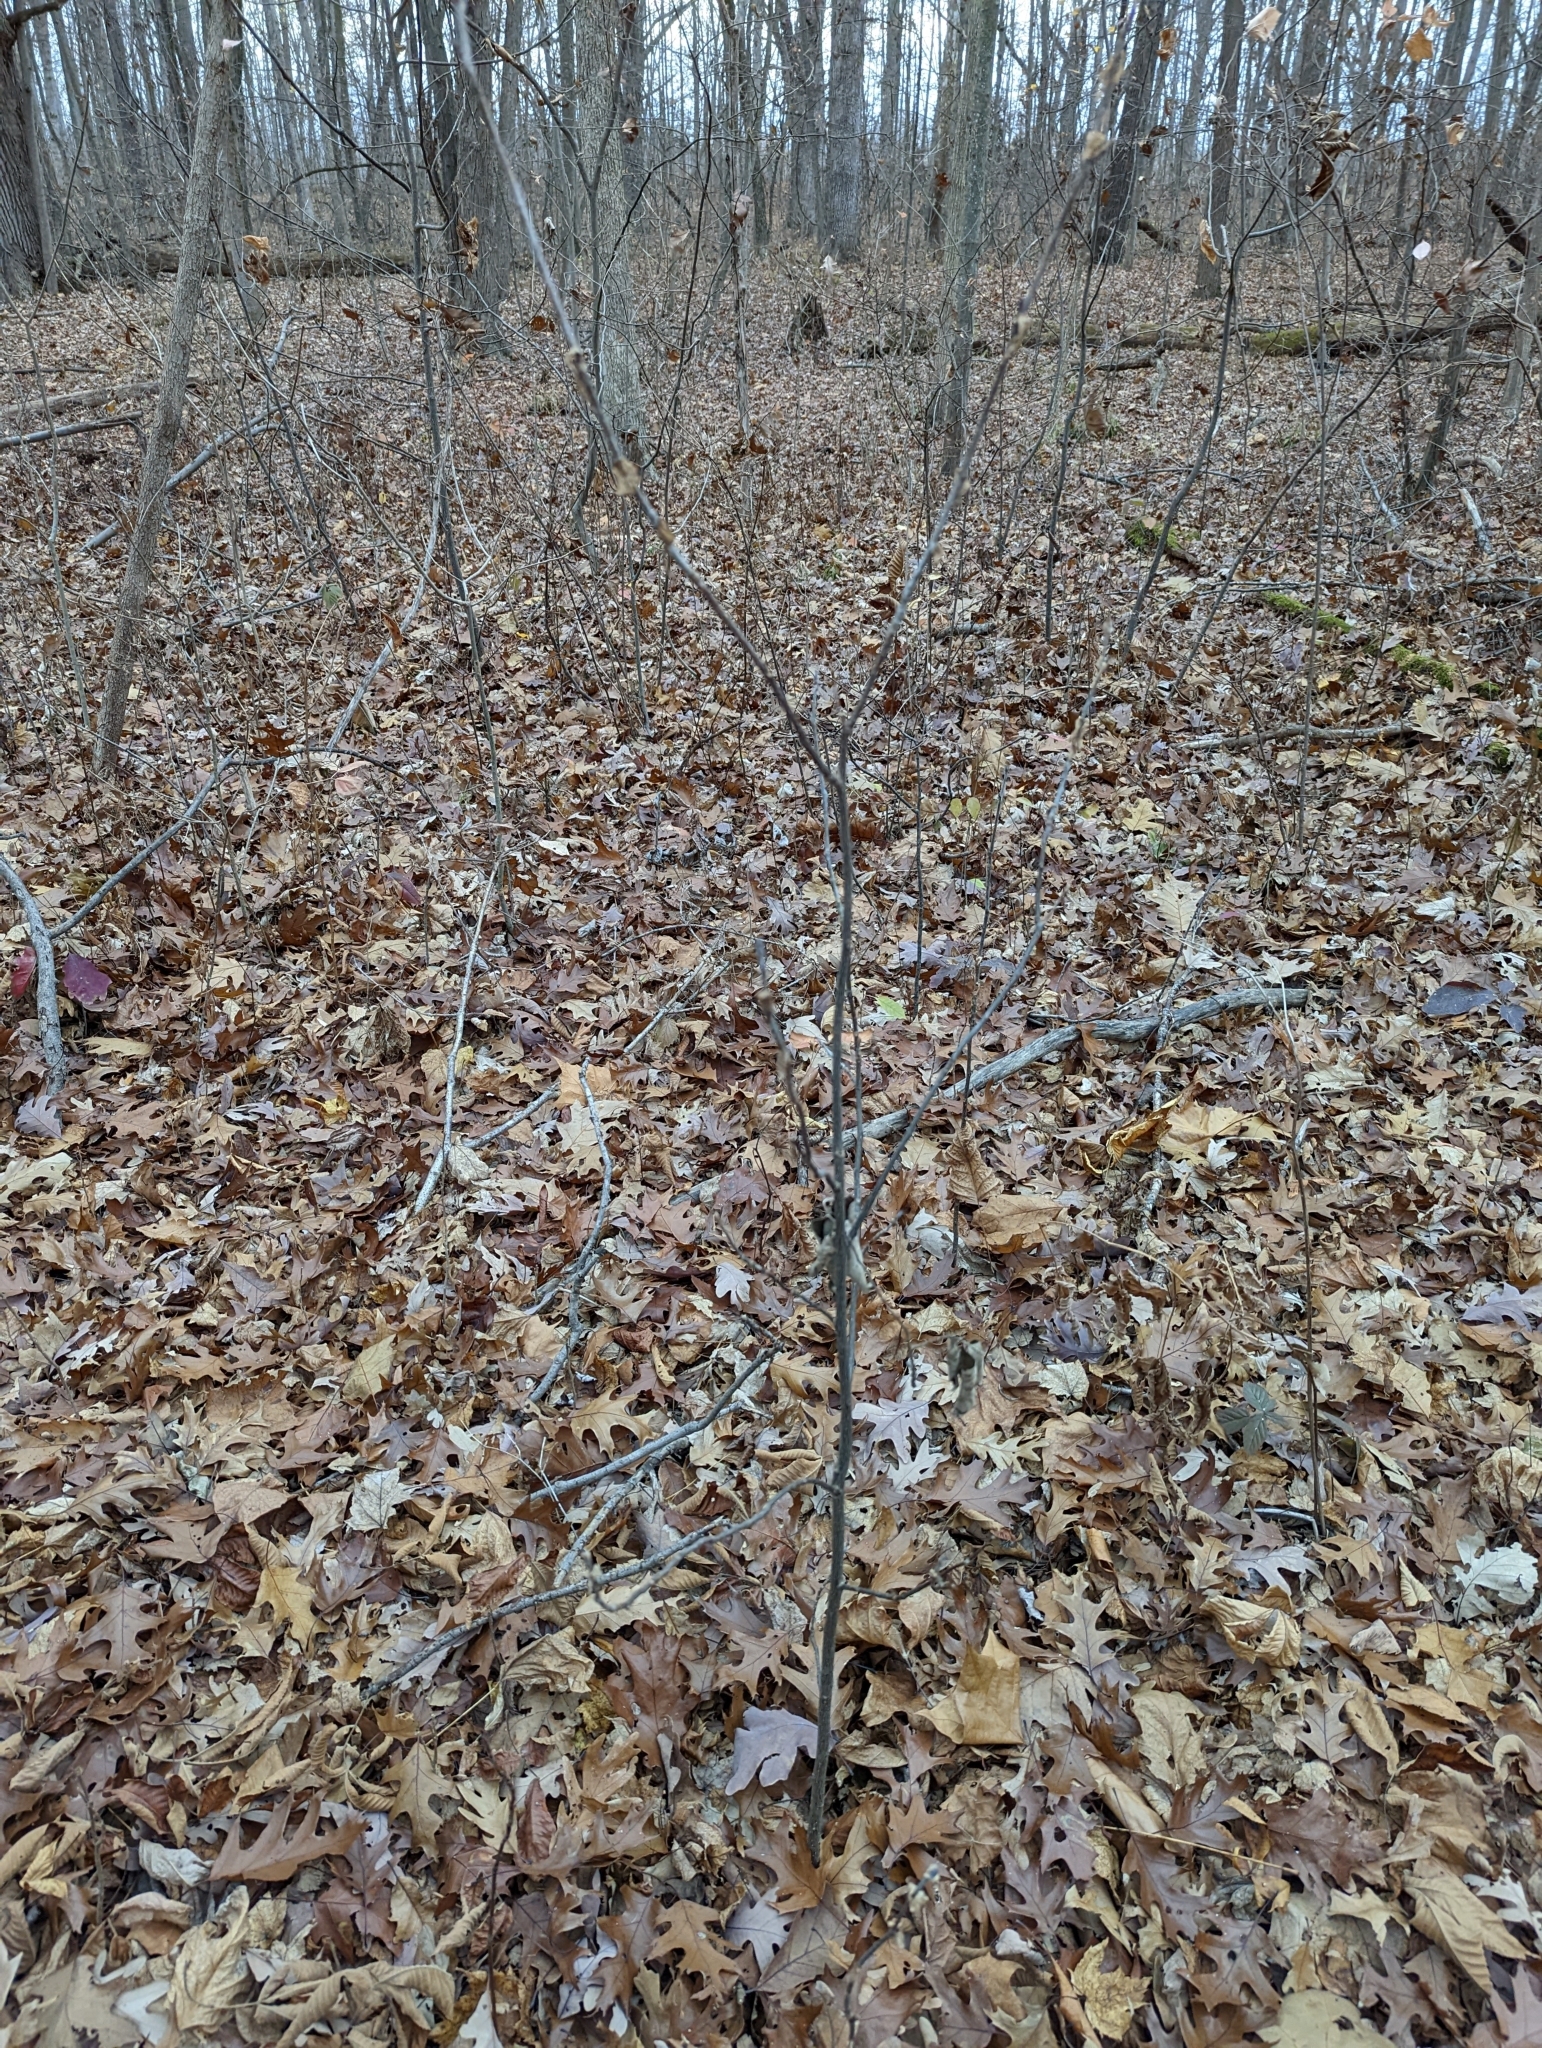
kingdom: Plantae
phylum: Tracheophyta
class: Magnoliopsida
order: Magnoliales
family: Magnoliaceae
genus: Liriodendron
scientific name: Liriodendron tulipifera
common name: Tulip tree
